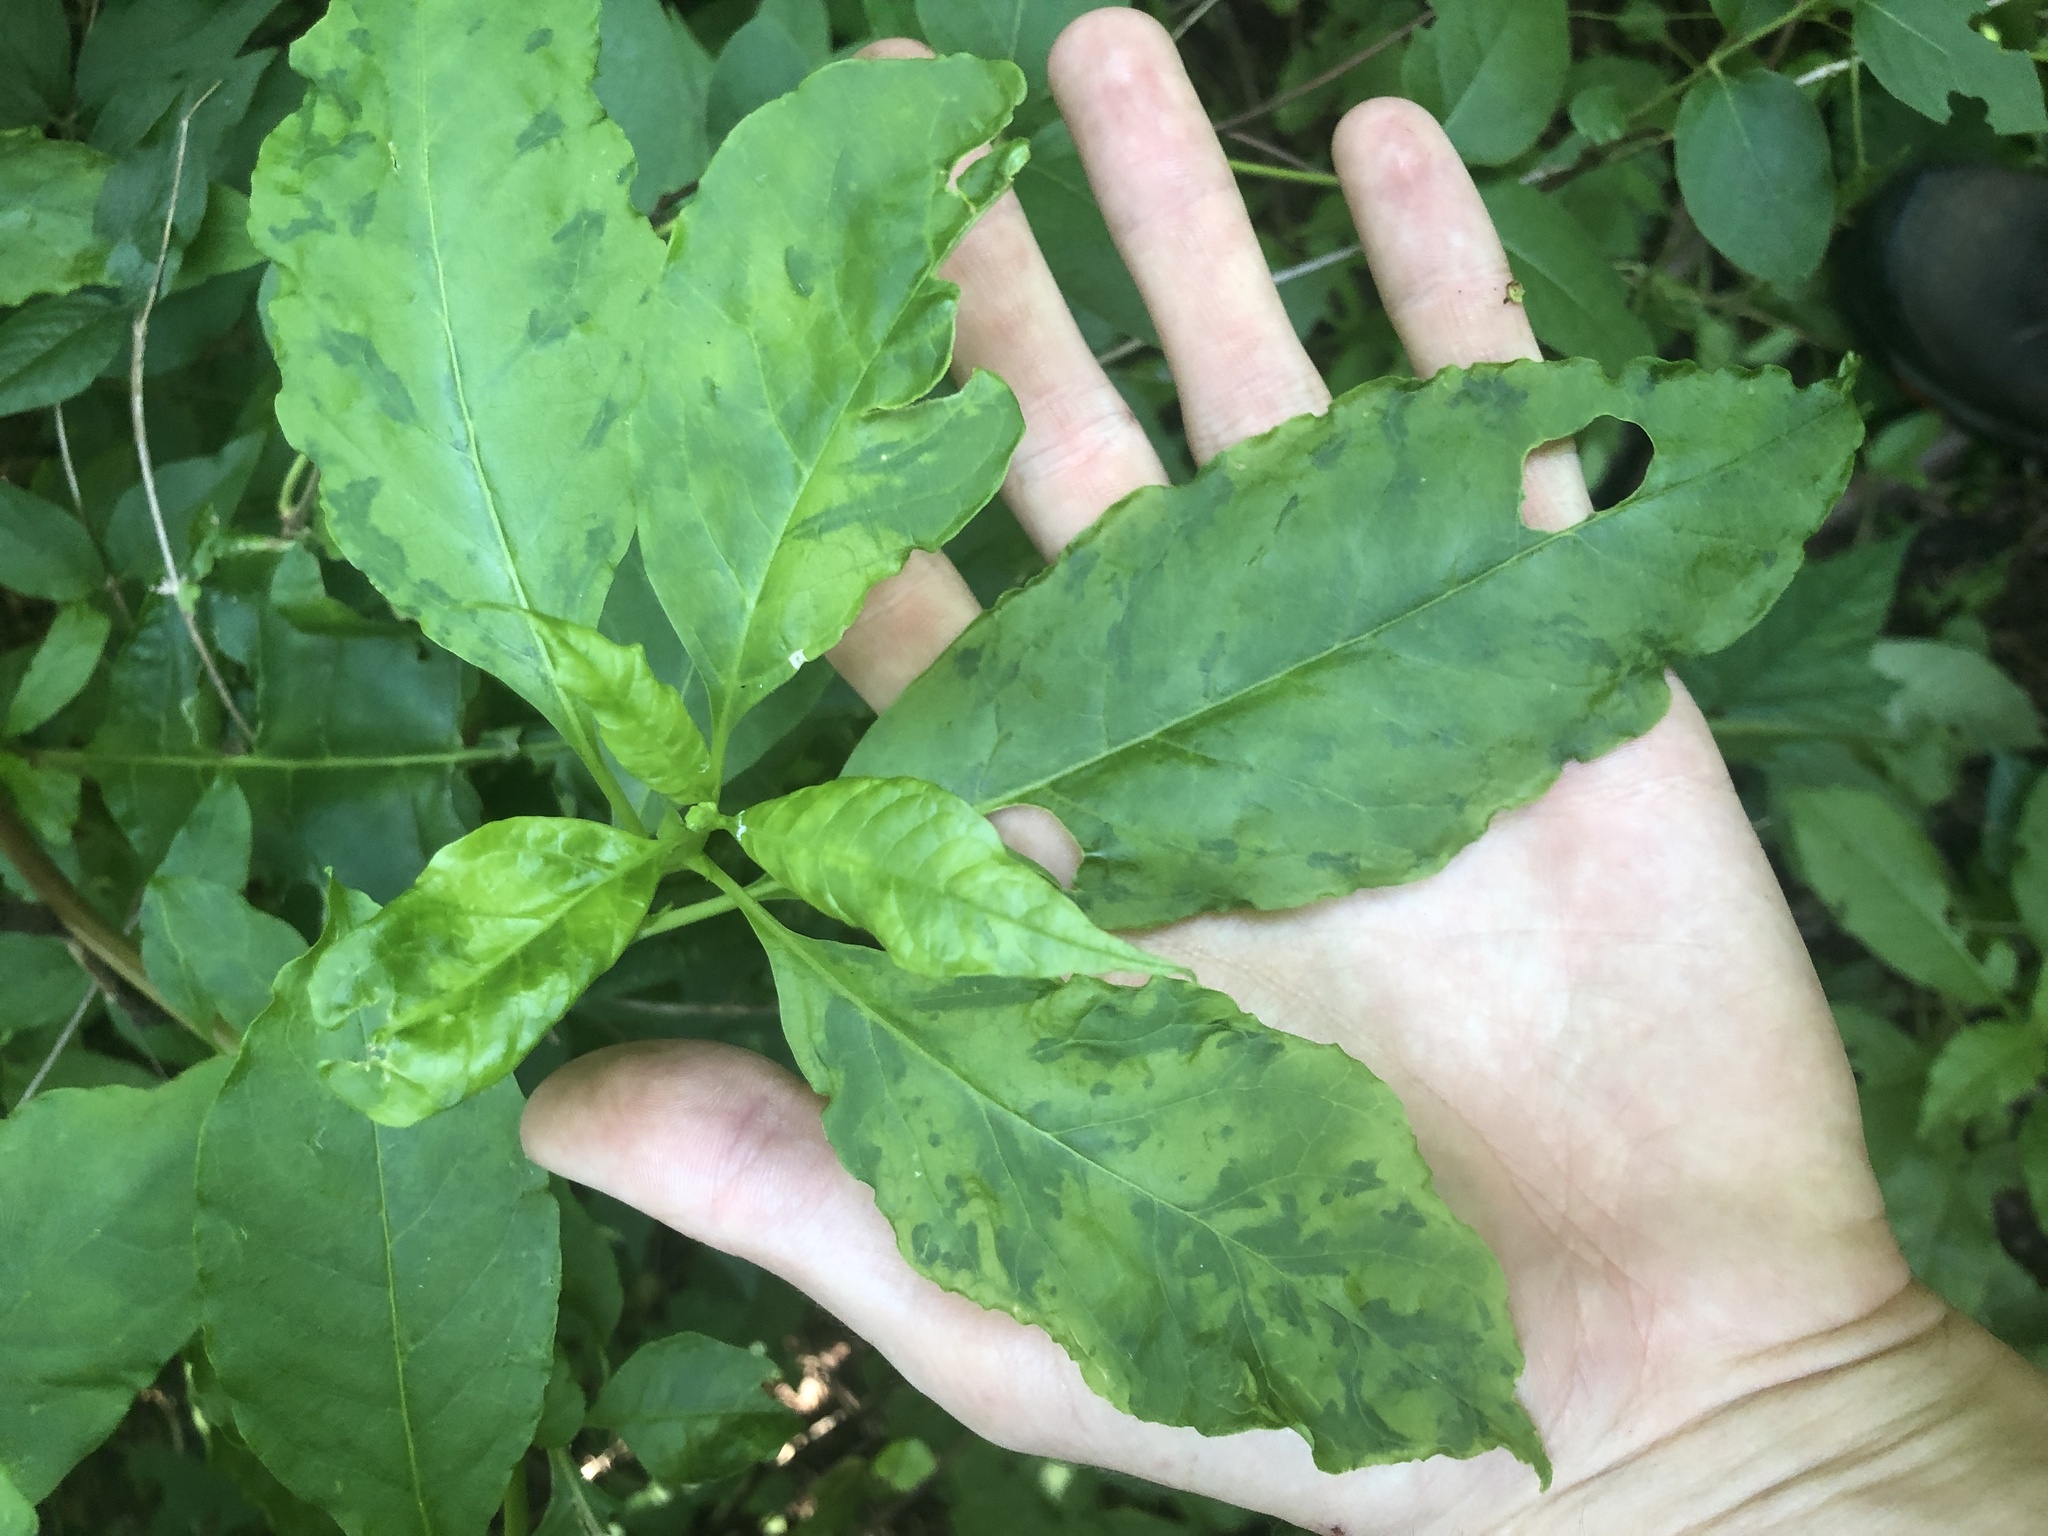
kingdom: Viruses
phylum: Pisuviricota
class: Stelpaviricetes
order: Patatavirales
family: Potyviridae
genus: Potyvirus
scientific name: Potyvirus Pokeweed mosaic virus
